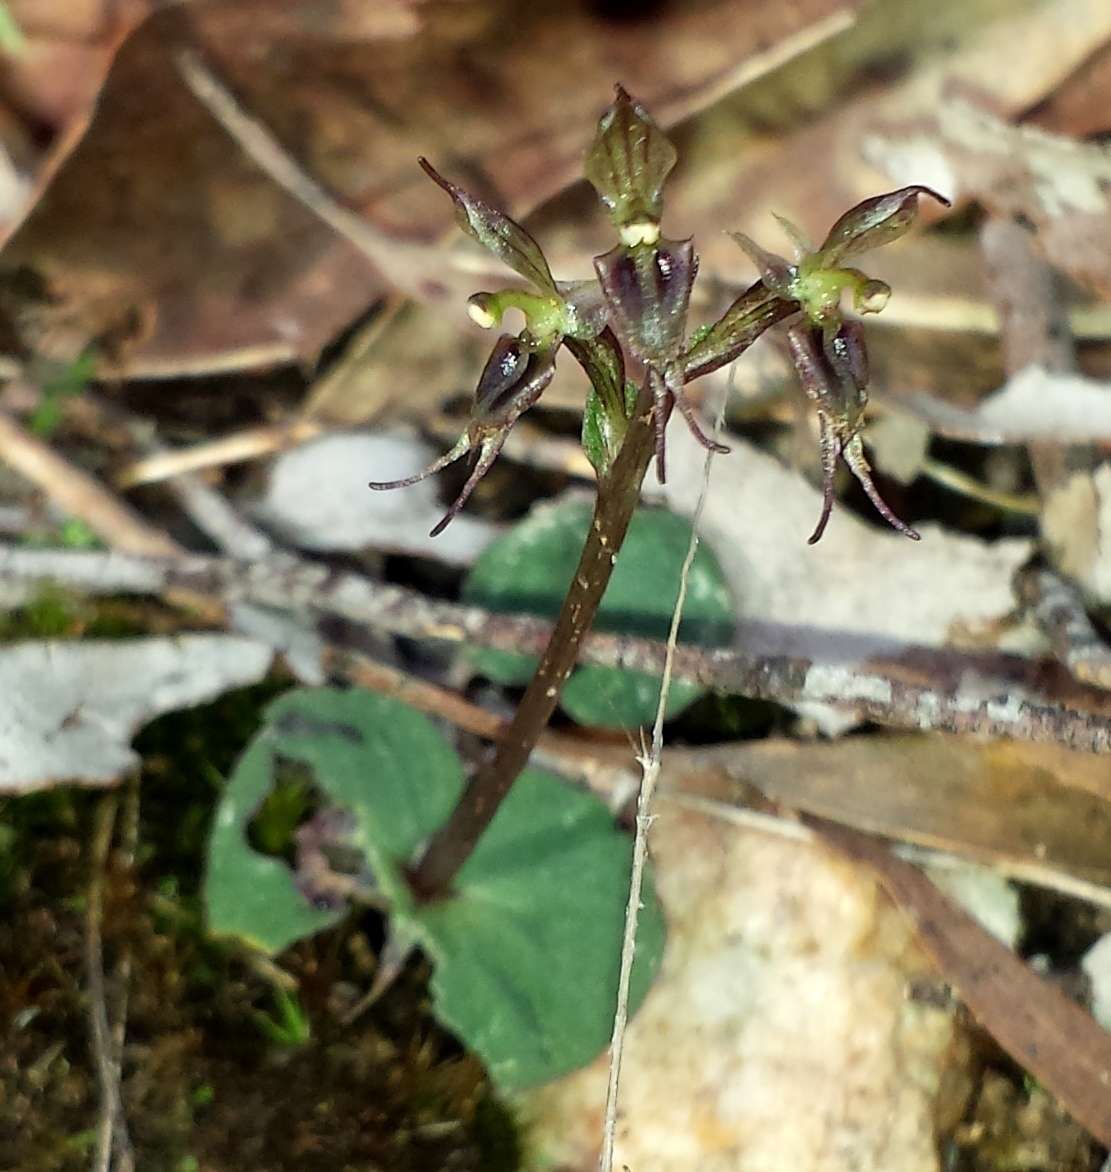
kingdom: Plantae
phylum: Tracheophyta
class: Liliopsida
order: Asparagales
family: Orchidaceae
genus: Acianthus
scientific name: Acianthus pusillus
